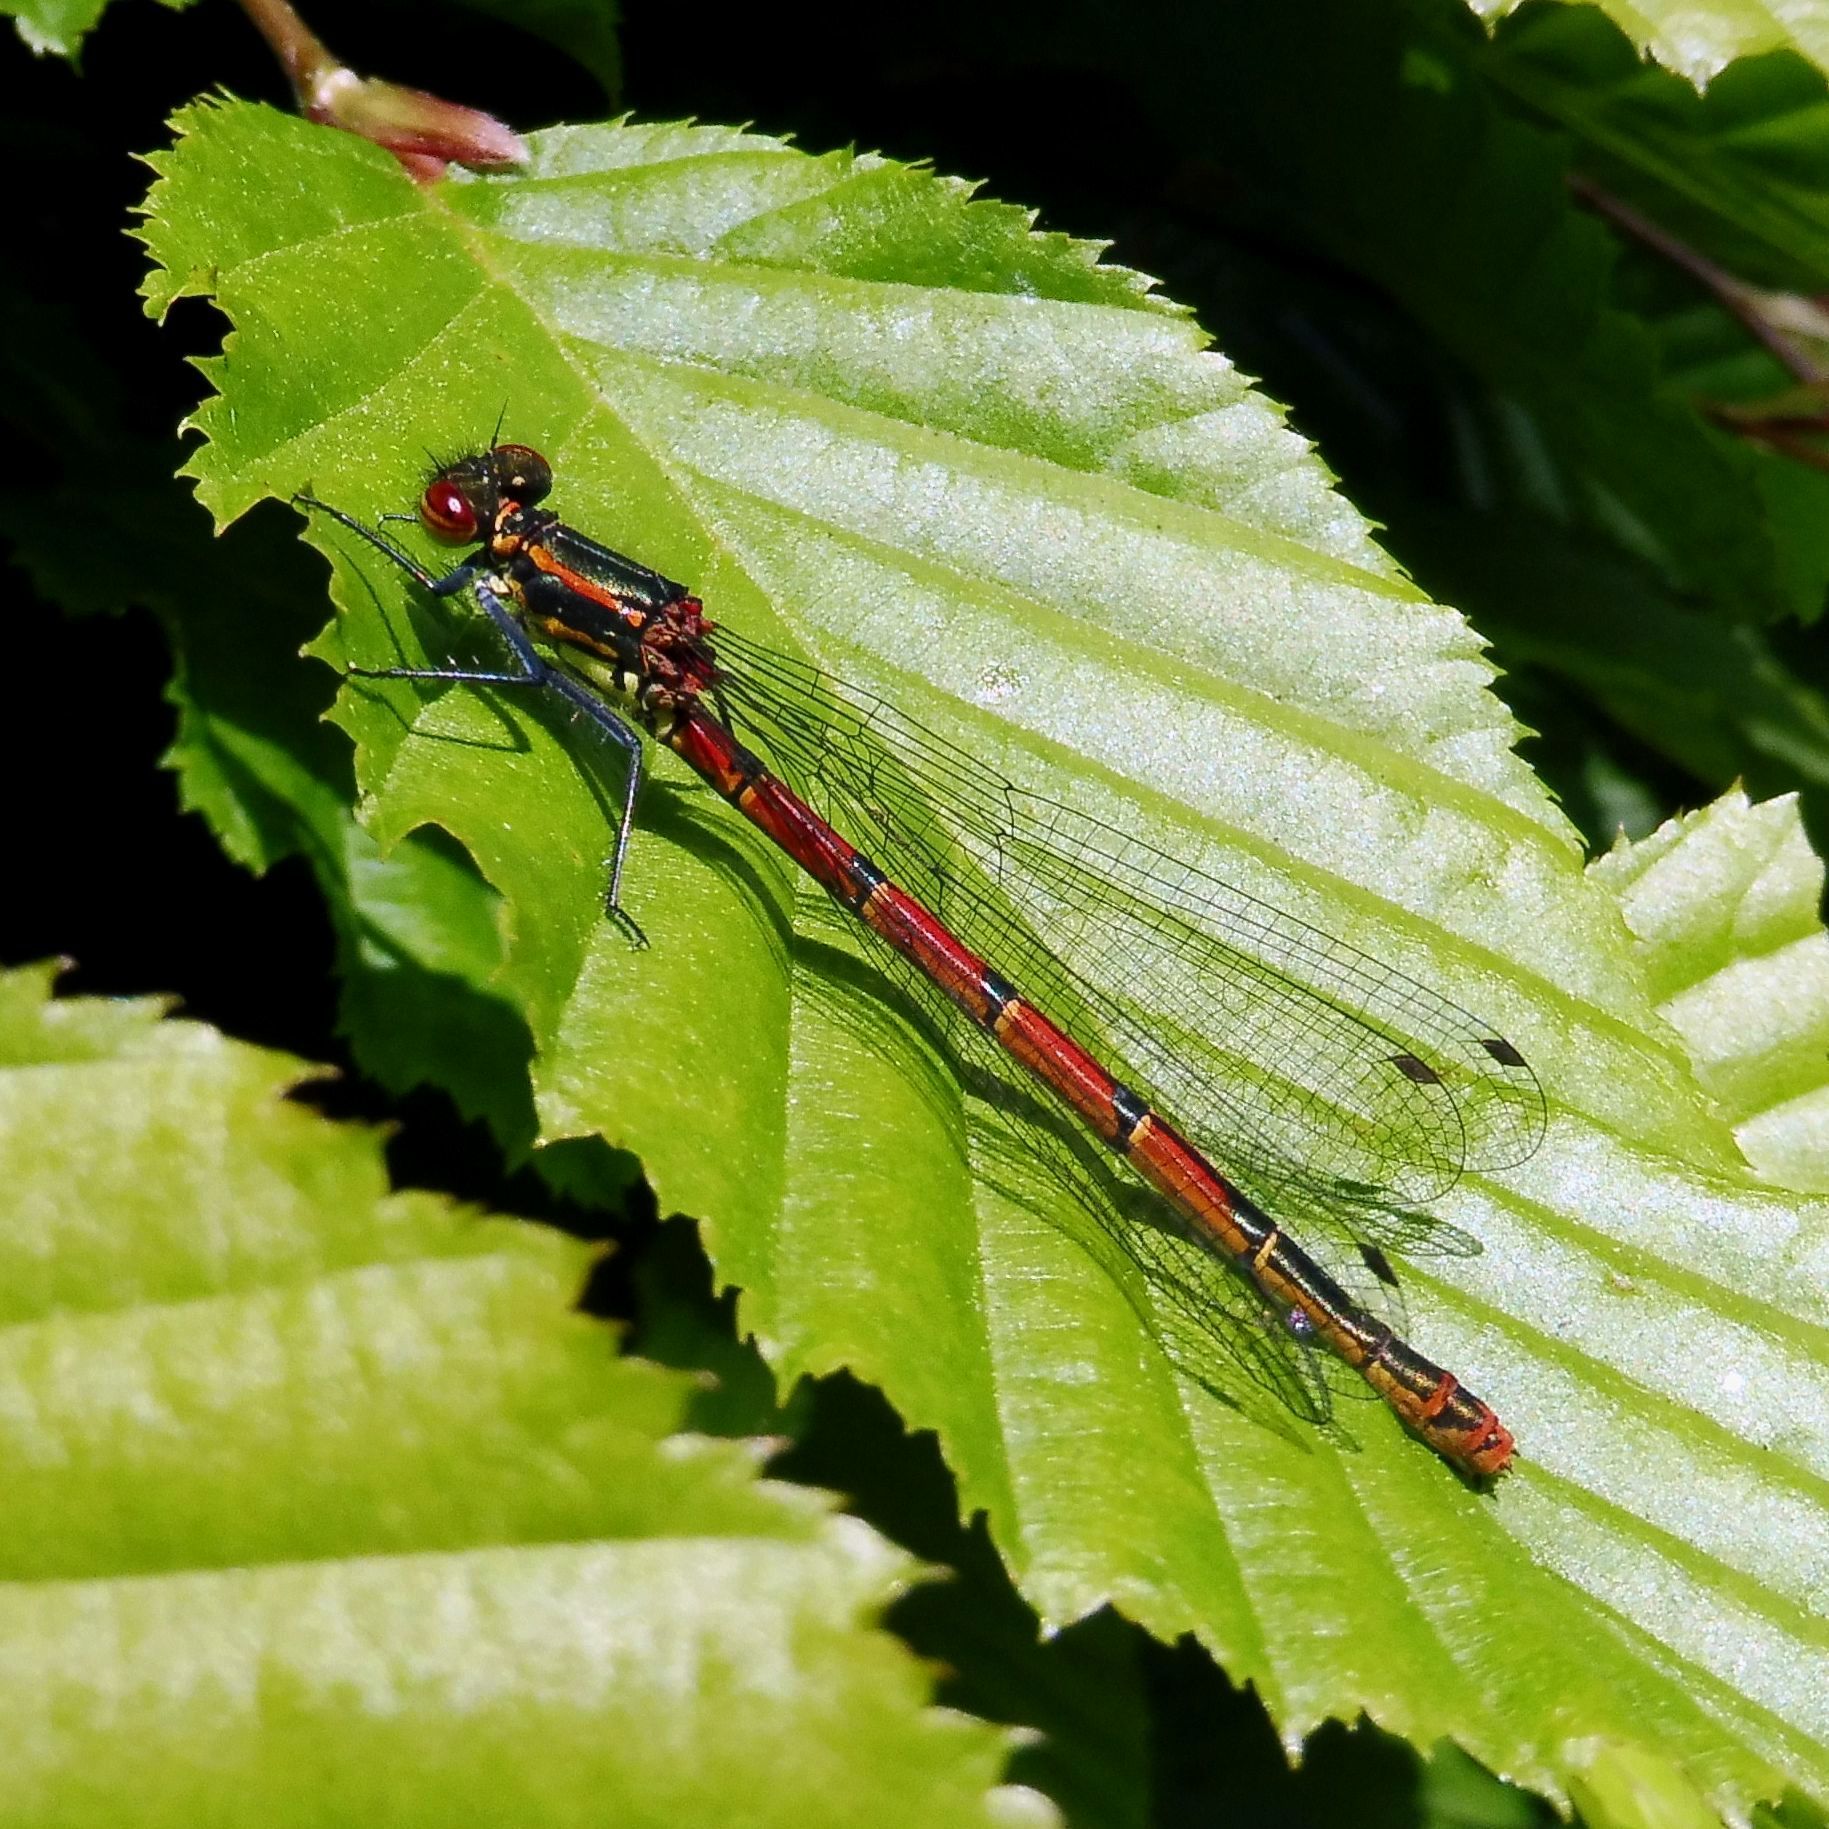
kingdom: Animalia
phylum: Arthropoda
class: Insecta
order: Odonata
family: Coenagrionidae
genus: Pyrrhosoma
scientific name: Pyrrhosoma nymphula
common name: Large red damsel
